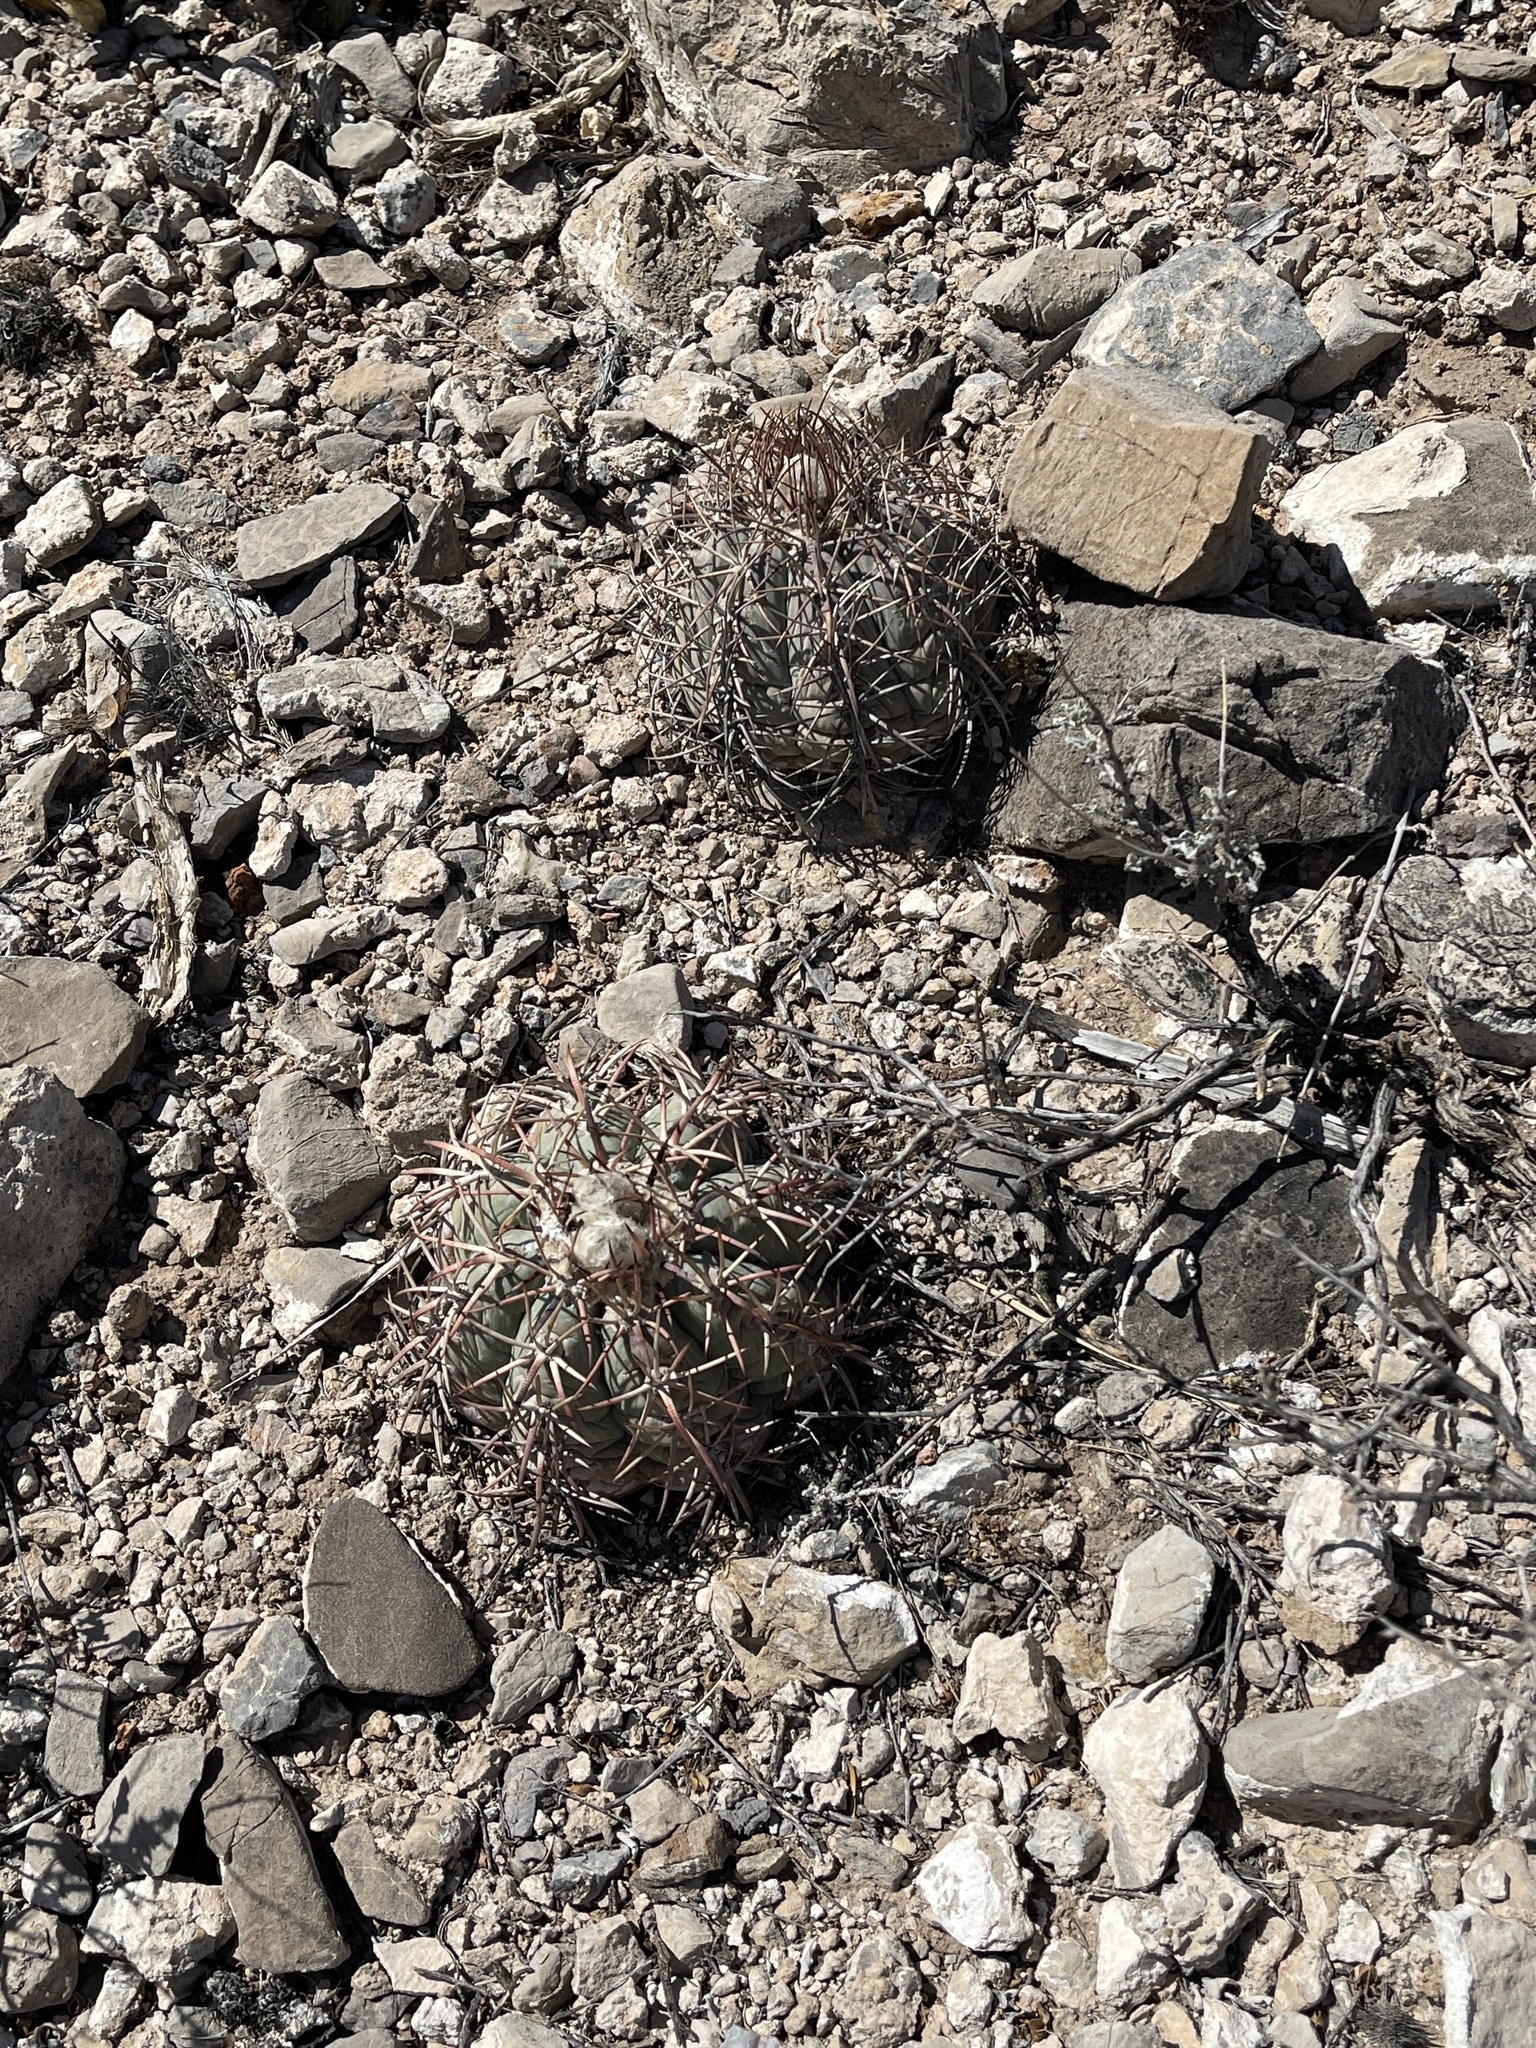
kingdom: Plantae
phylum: Tracheophyta
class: Magnoliopsida
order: Caryophyllales
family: Cactaceae
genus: Echinocactus
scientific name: Echinocactus horizonthalonius
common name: Devilshead
